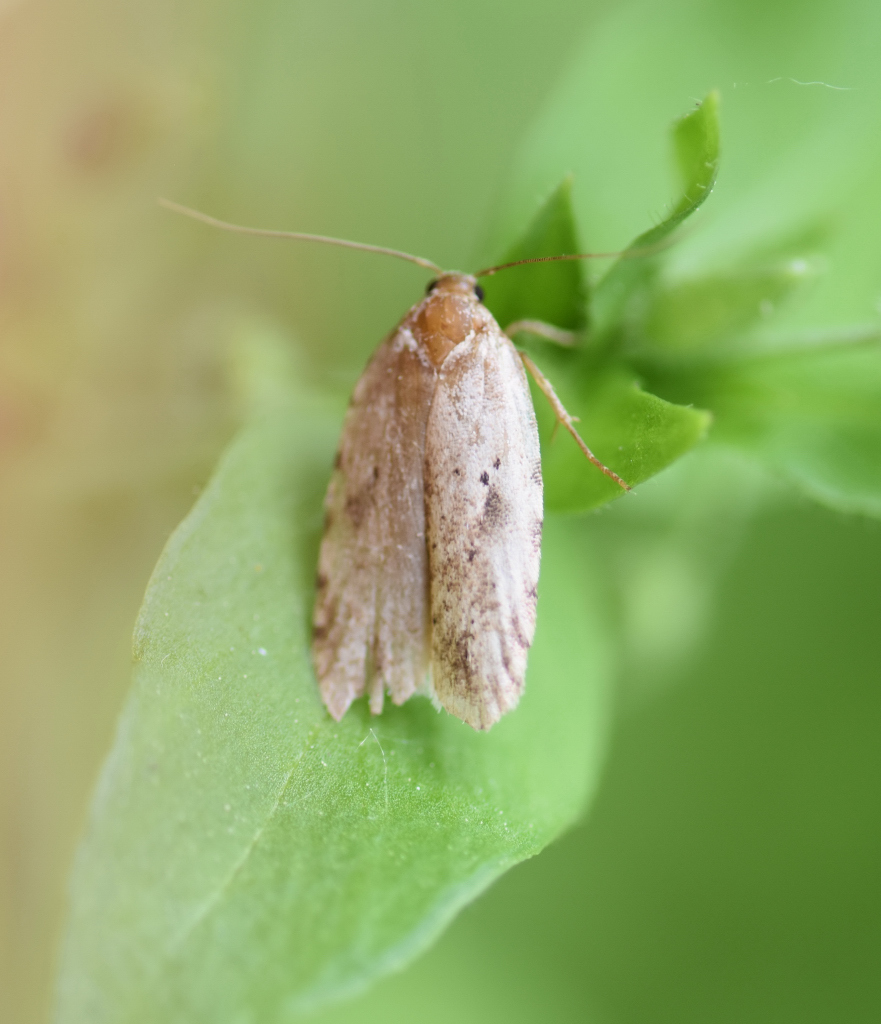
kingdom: Animalia
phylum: Arthropoda
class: Insecta
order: Lepidoptera
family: Depressariidae
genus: Agonopterix
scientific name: Agonopterix canadensis
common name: Canadian agonopterix moth
